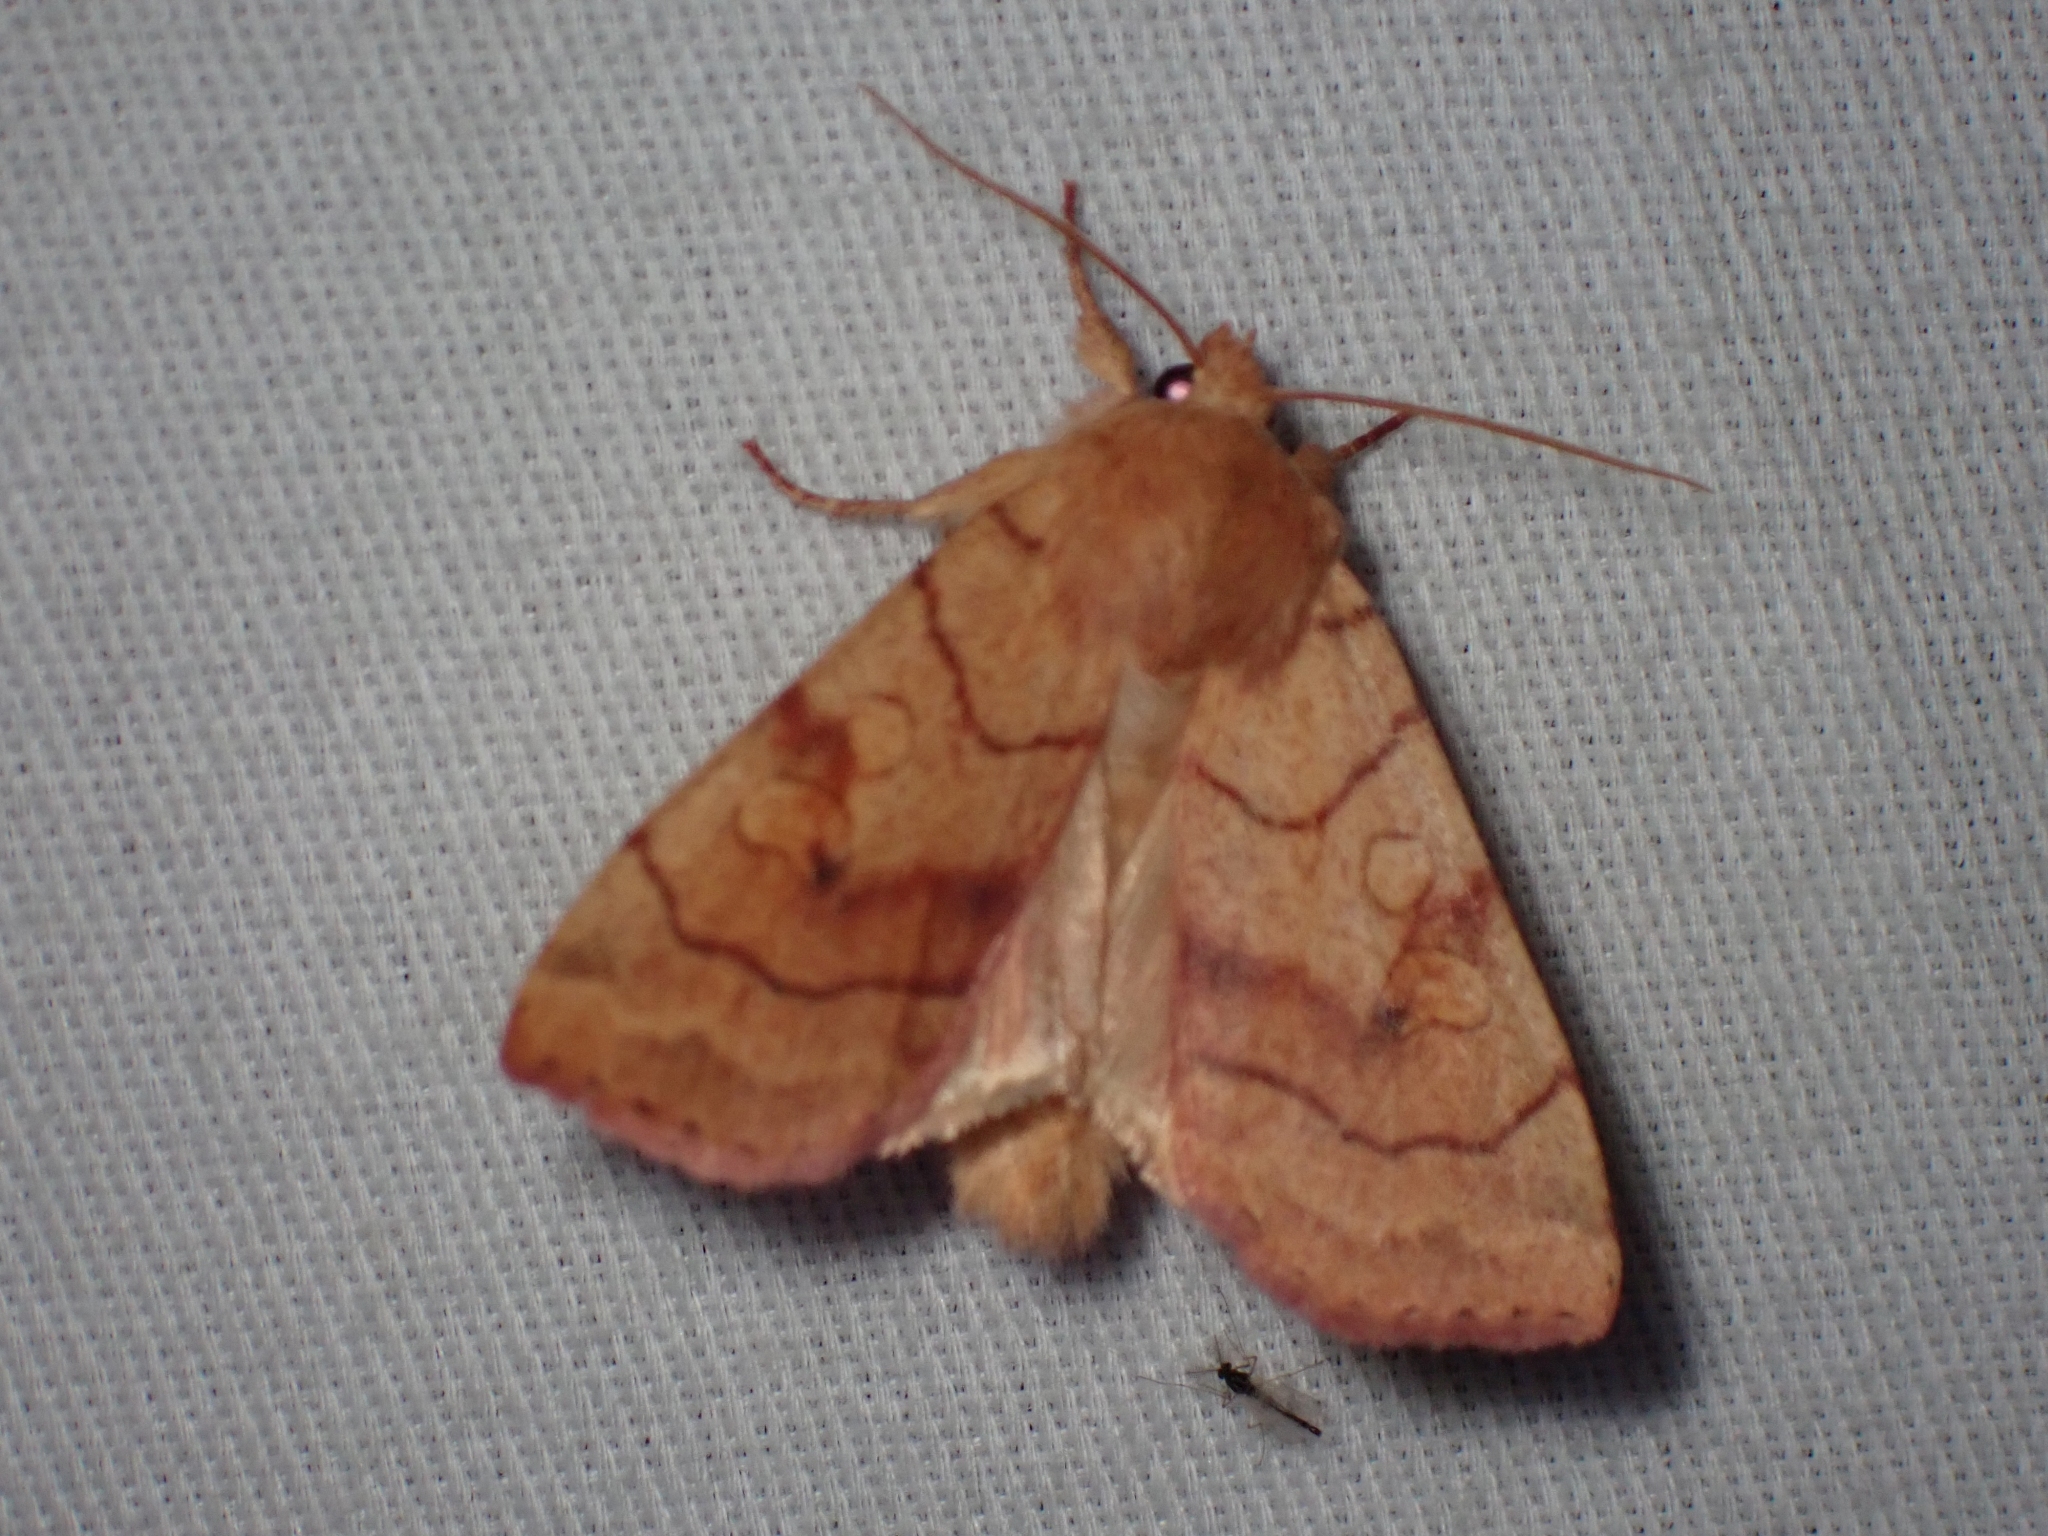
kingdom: Animalia
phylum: Arthropoda
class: Insecta
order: Lepidoptera
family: Noctuidae
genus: Enargia
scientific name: Enargia fausta
